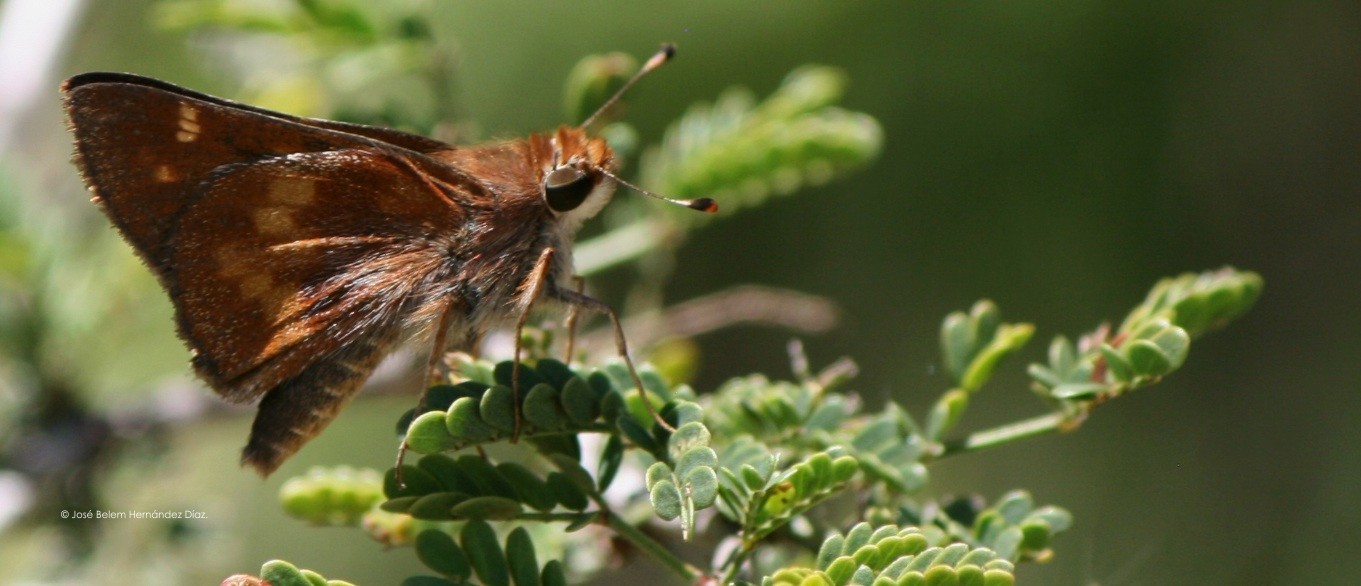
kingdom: Animalia
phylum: Arthropoda
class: Insecta
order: Lepidoptera
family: Hesperiidae
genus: Lon
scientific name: Lon melane
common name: Umber skipper
